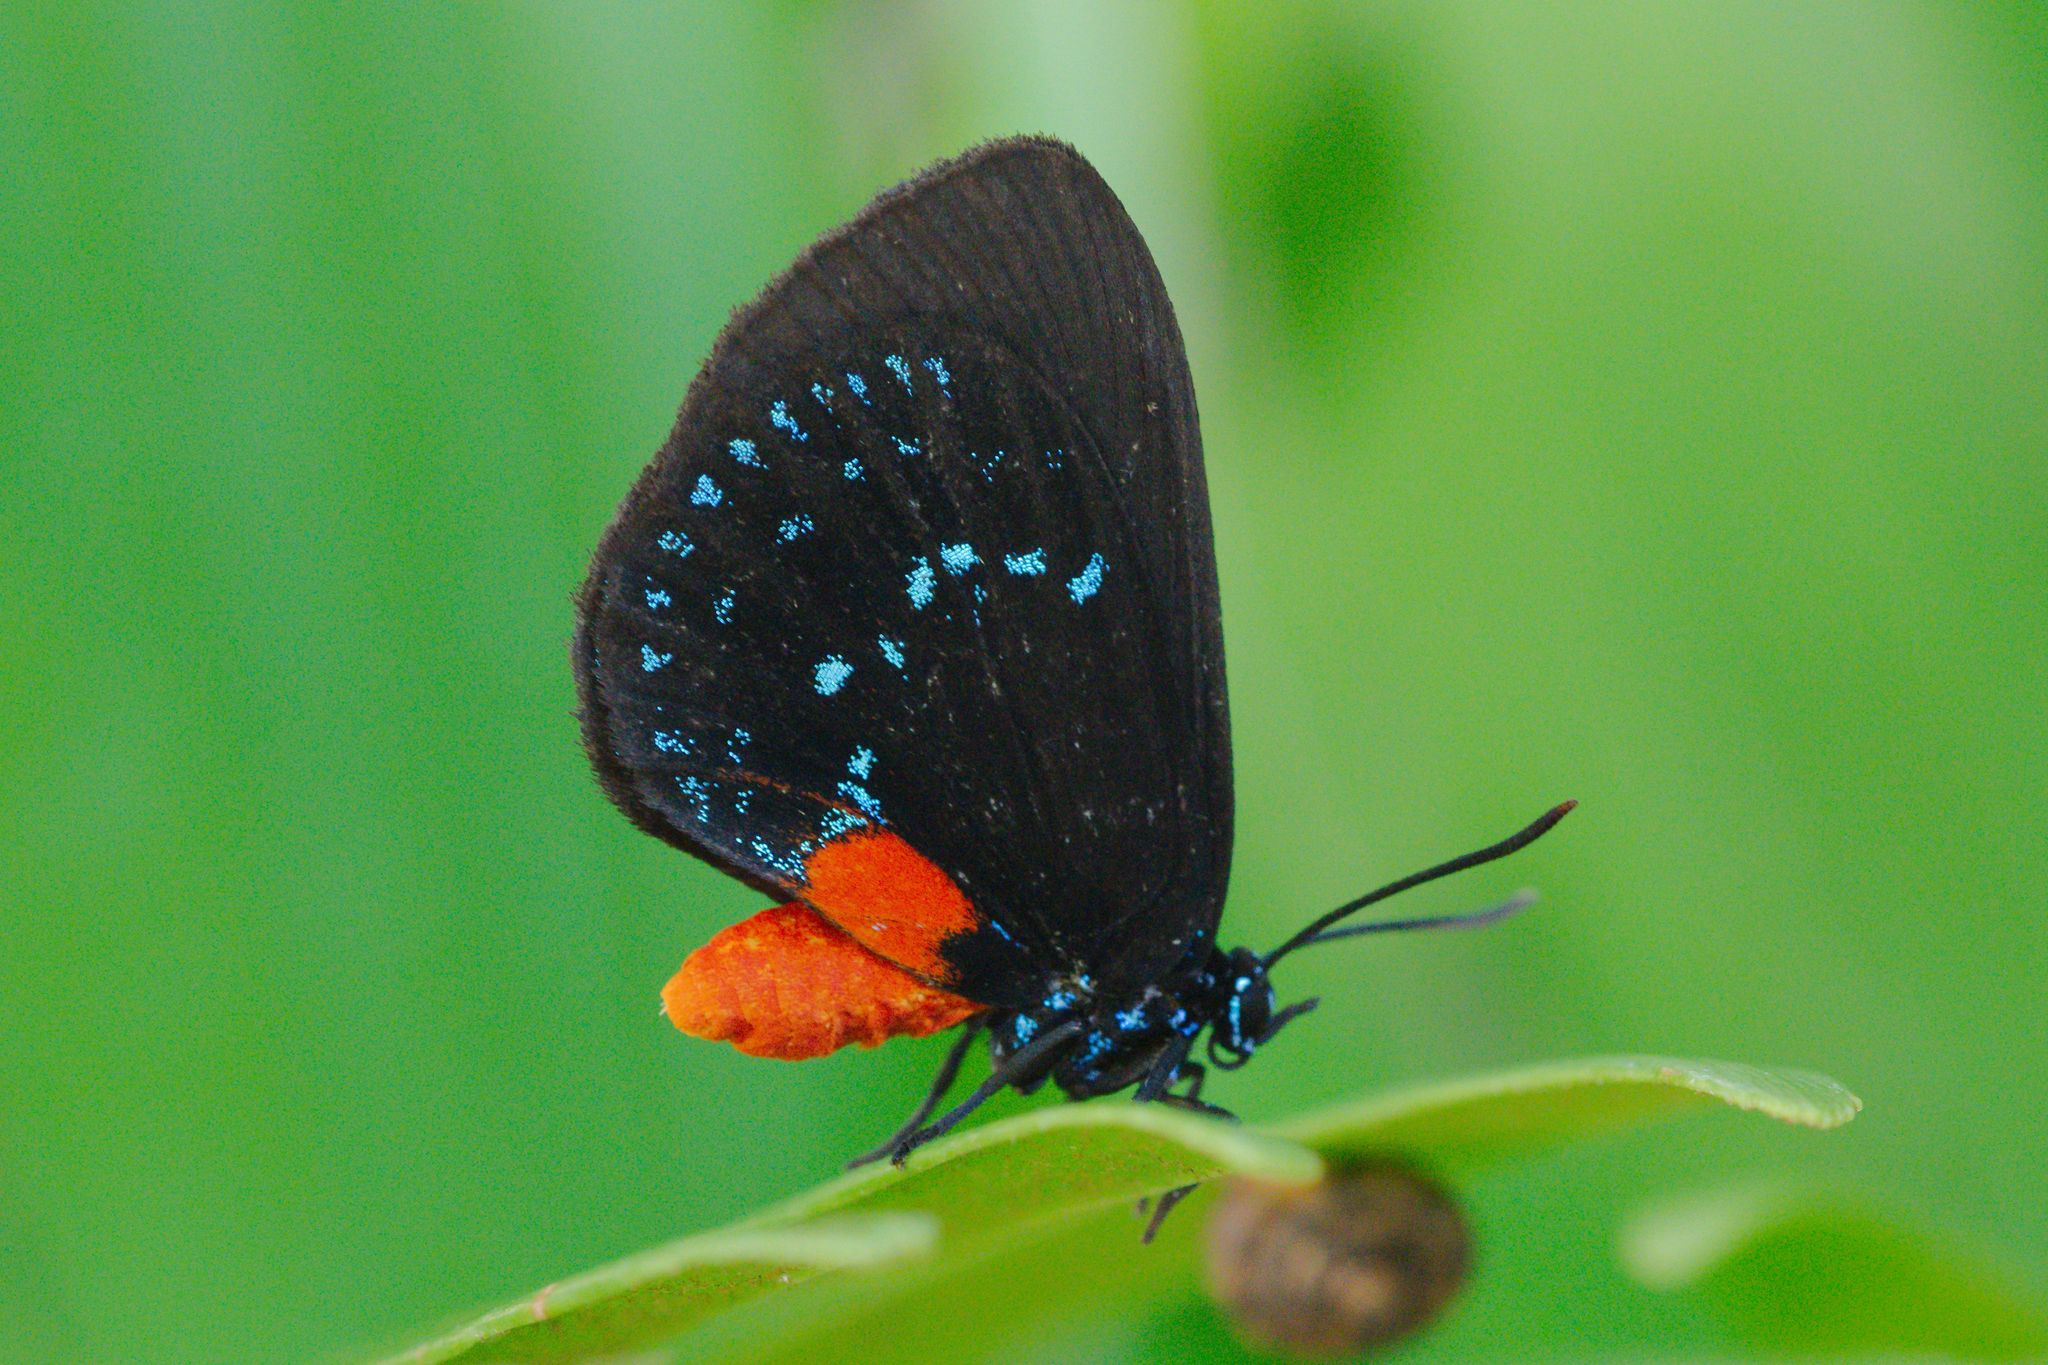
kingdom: Animalia
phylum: Arthropoda
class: Insecta
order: Lepidoptera
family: Lycaenidae
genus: Eumaeus
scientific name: Eumaeus atala
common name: Atala
